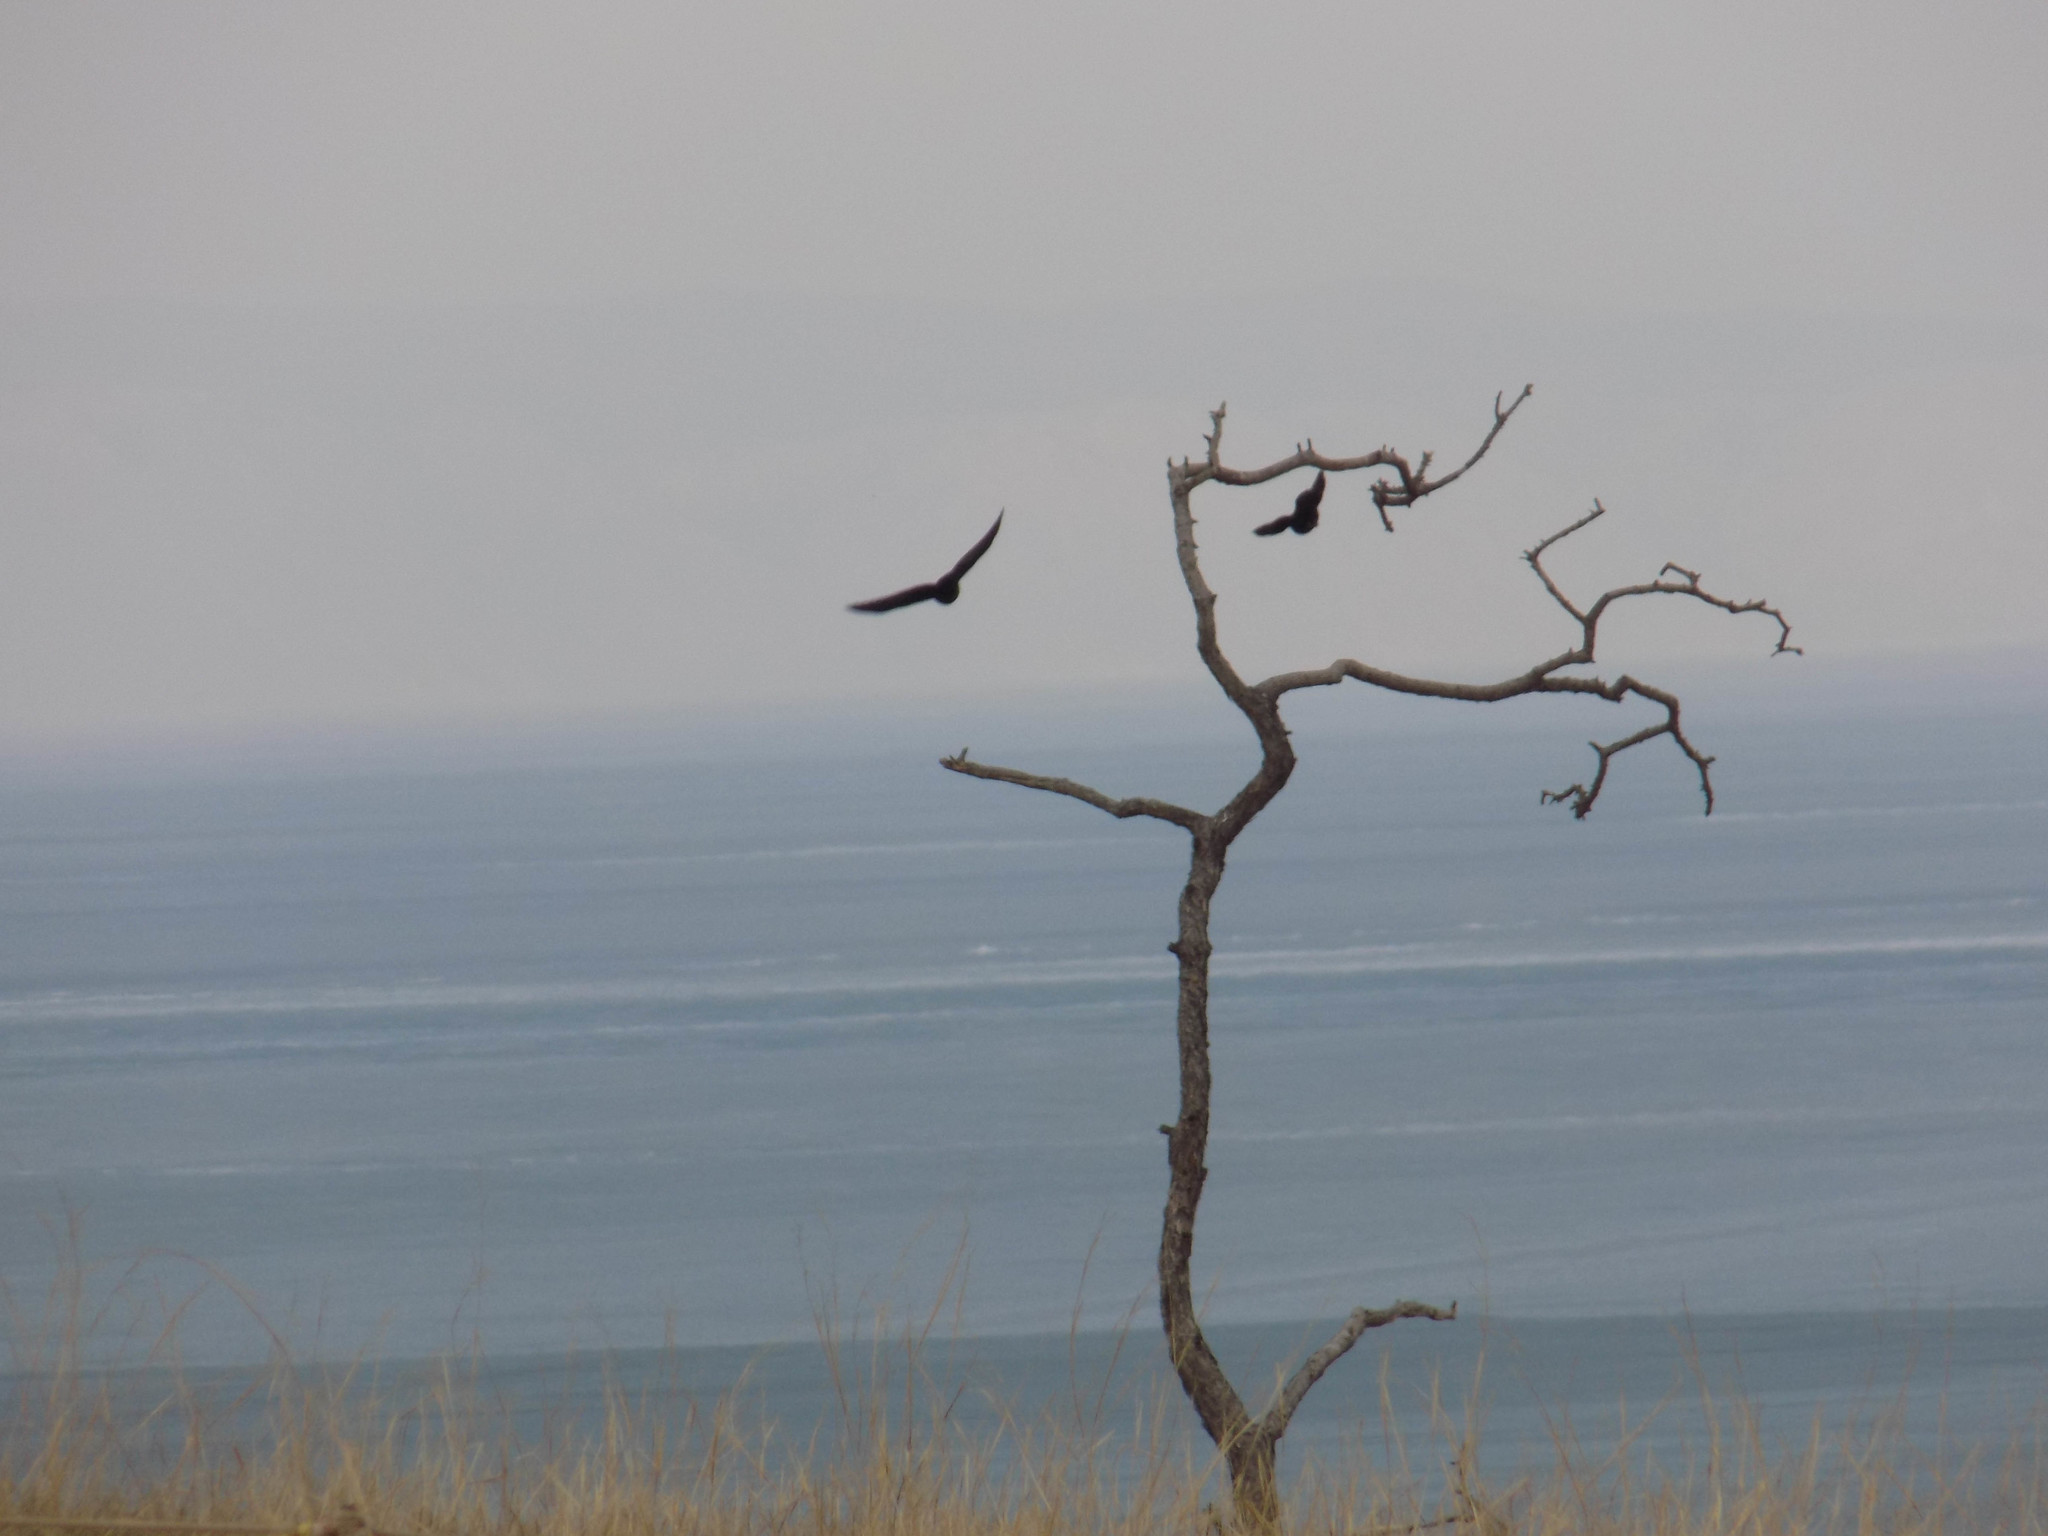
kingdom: Animalia
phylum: Chordata
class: Aves
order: Passeriformes
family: Corvidae
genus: Coloeus
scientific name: Coloeus dauuricus
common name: Daurian jackdaw
